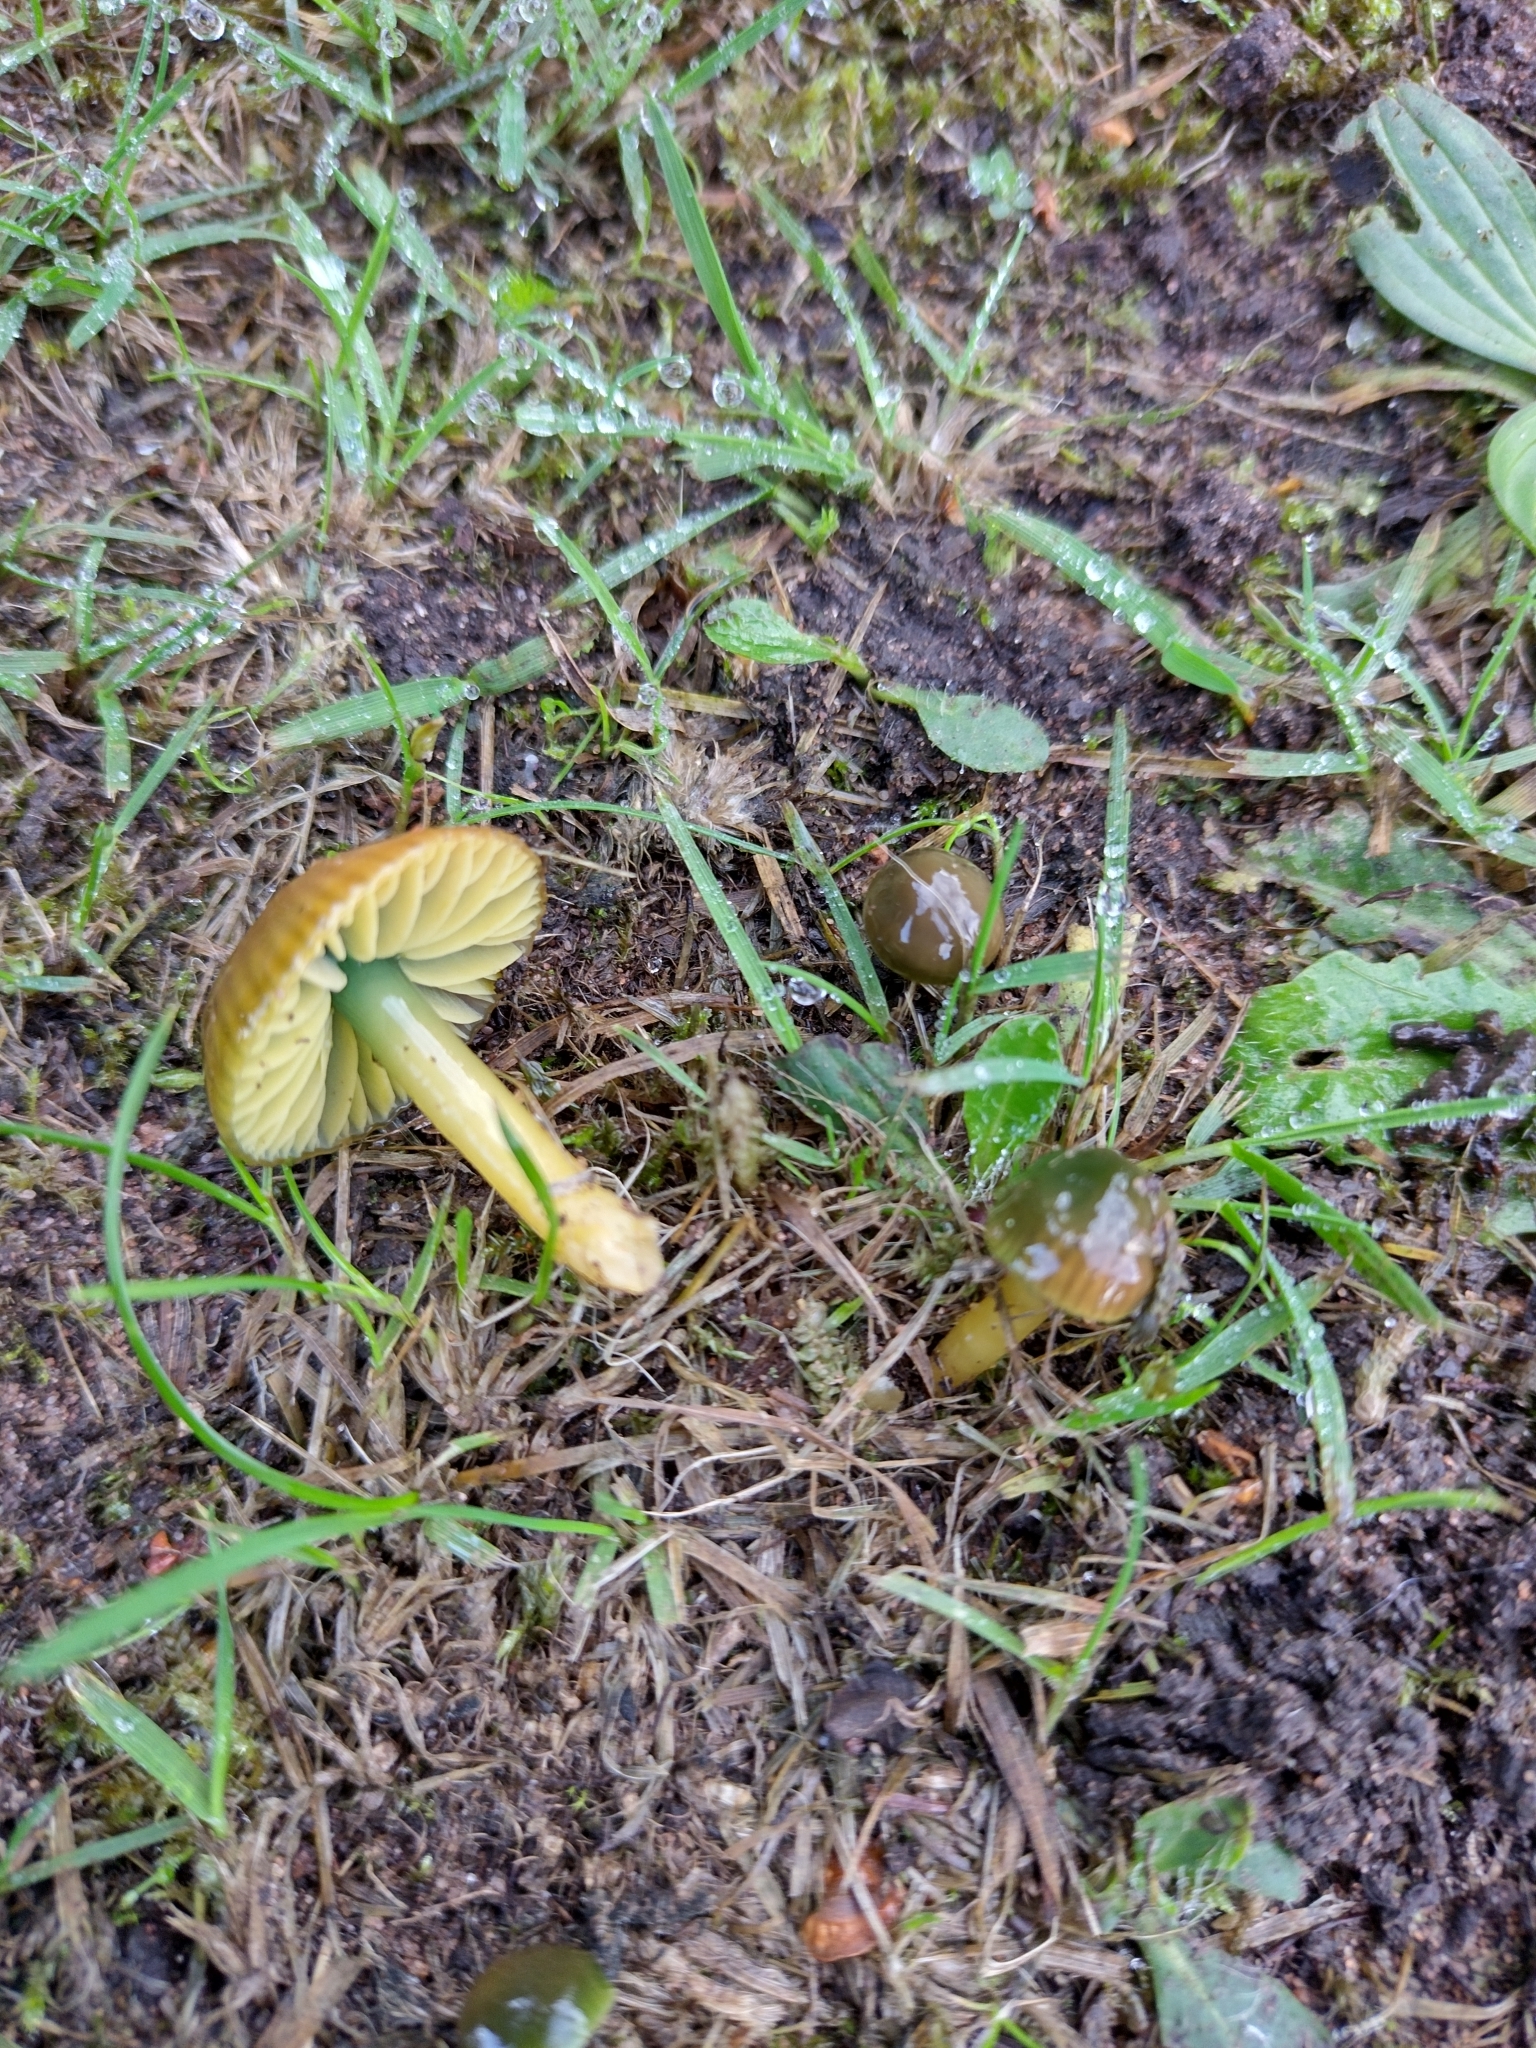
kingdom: Fungi
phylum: Basidiomycota
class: Agaricomycetes
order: Agaricales
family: Hygrophoraceae
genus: Gliophorus
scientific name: Gliophorus psittacinus
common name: Parrot wax-cap
